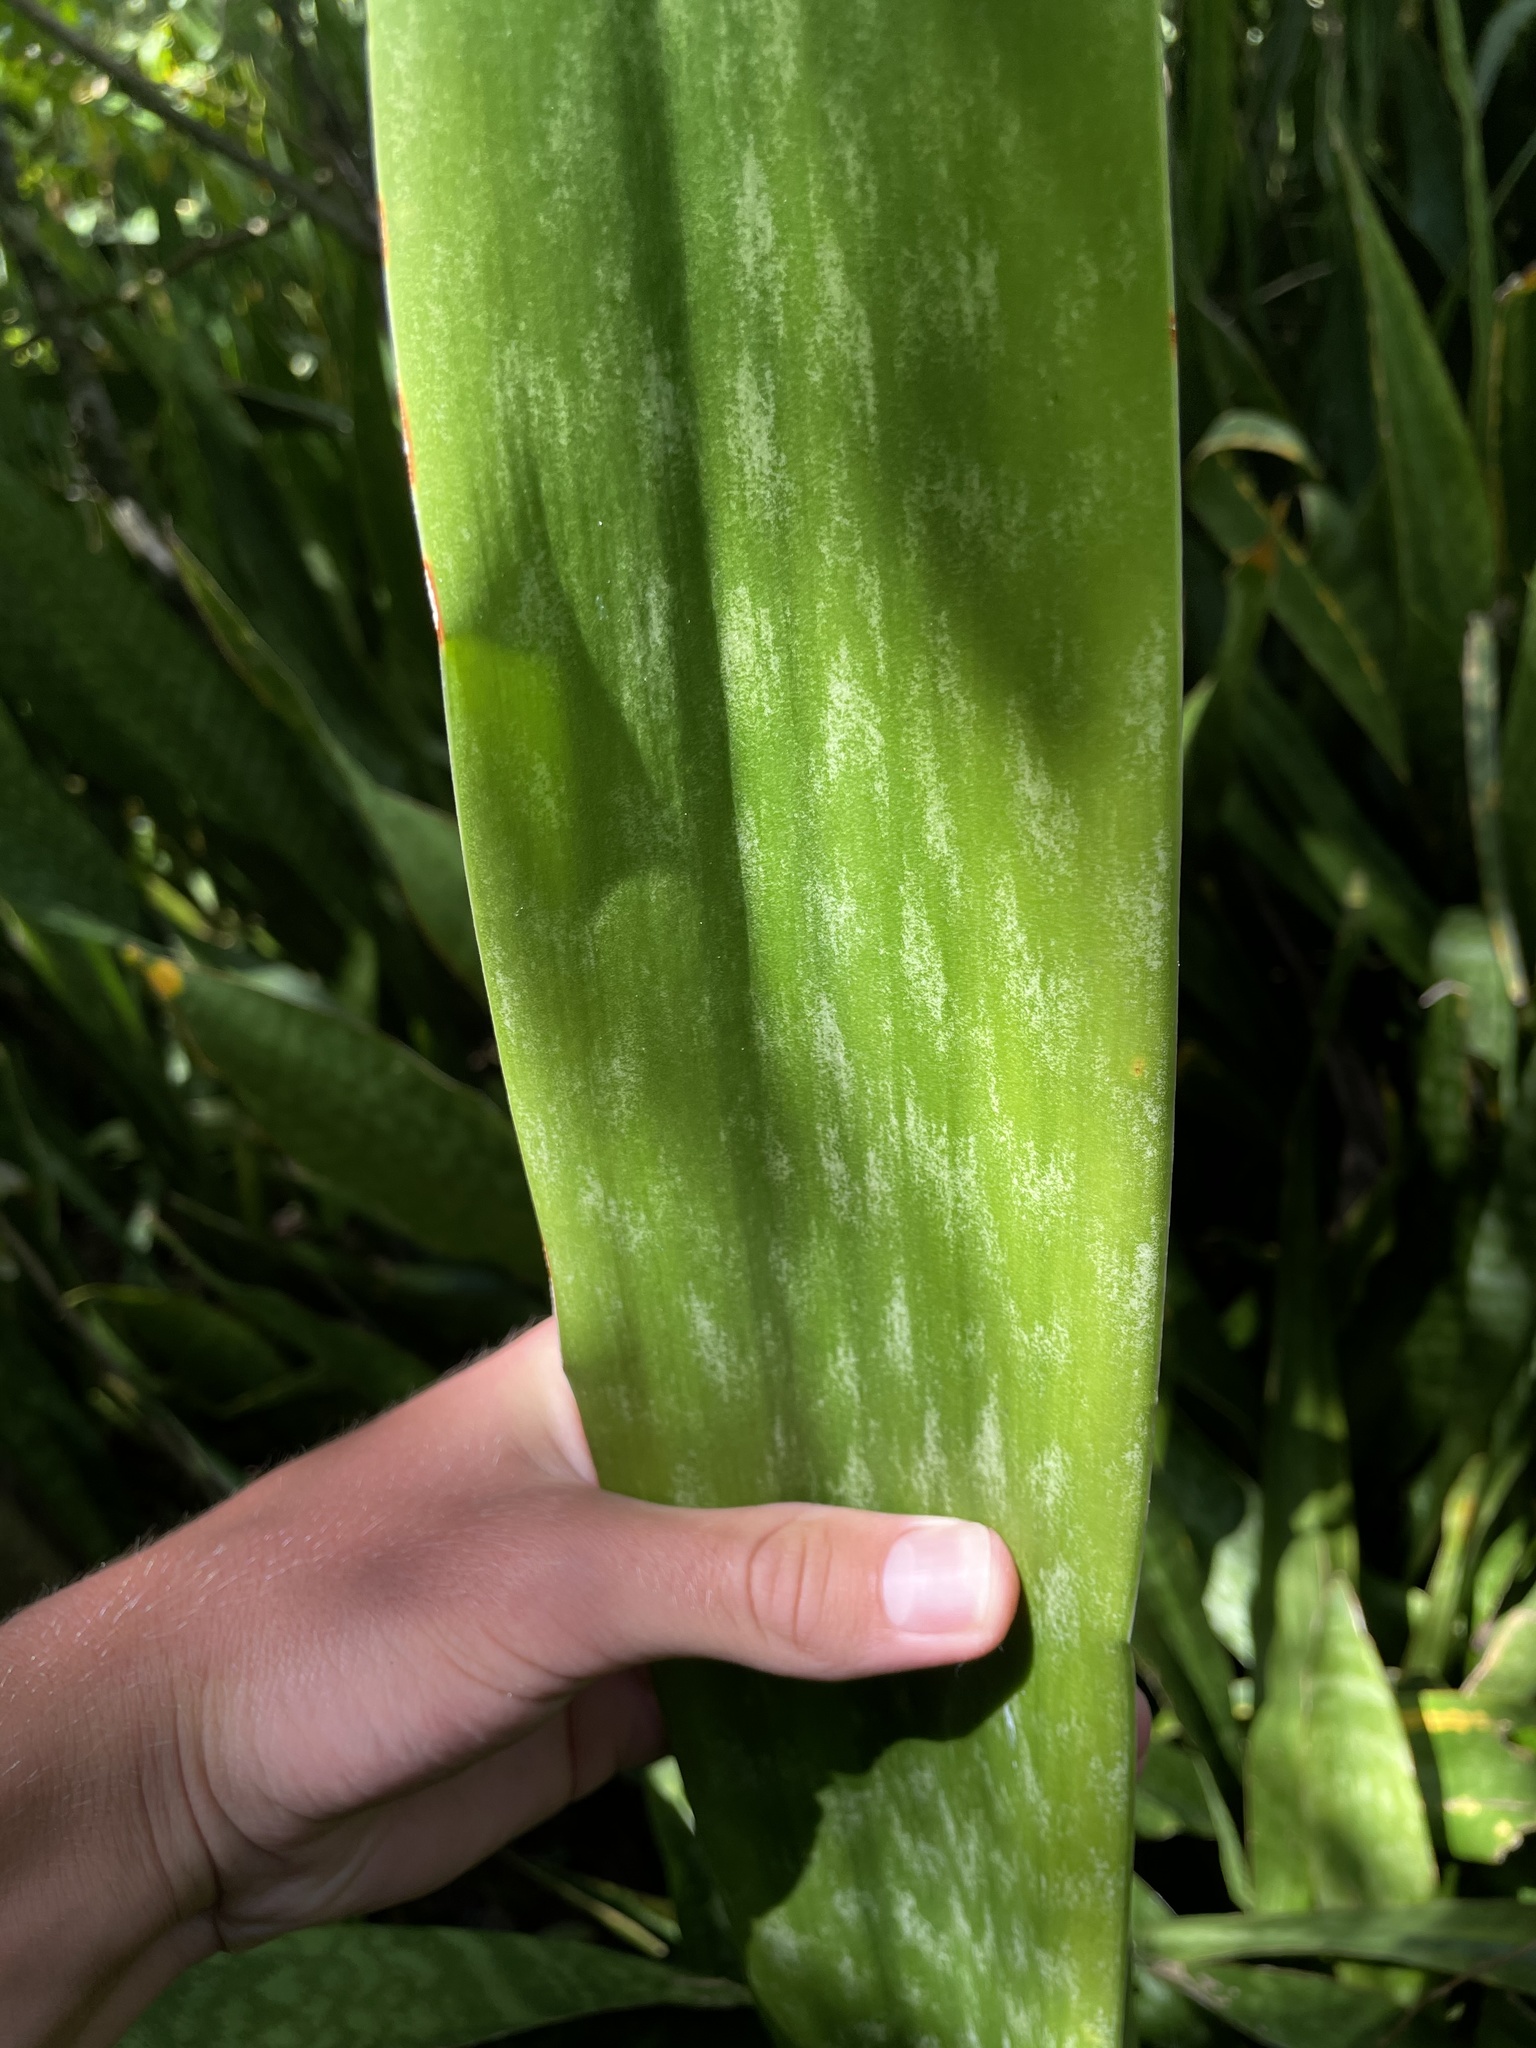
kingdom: Plantae
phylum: Tracheophyta
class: Liliopsida
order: Asparagales
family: Asparagaceae
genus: Dracaena
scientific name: Dracaena hyacinthoides
